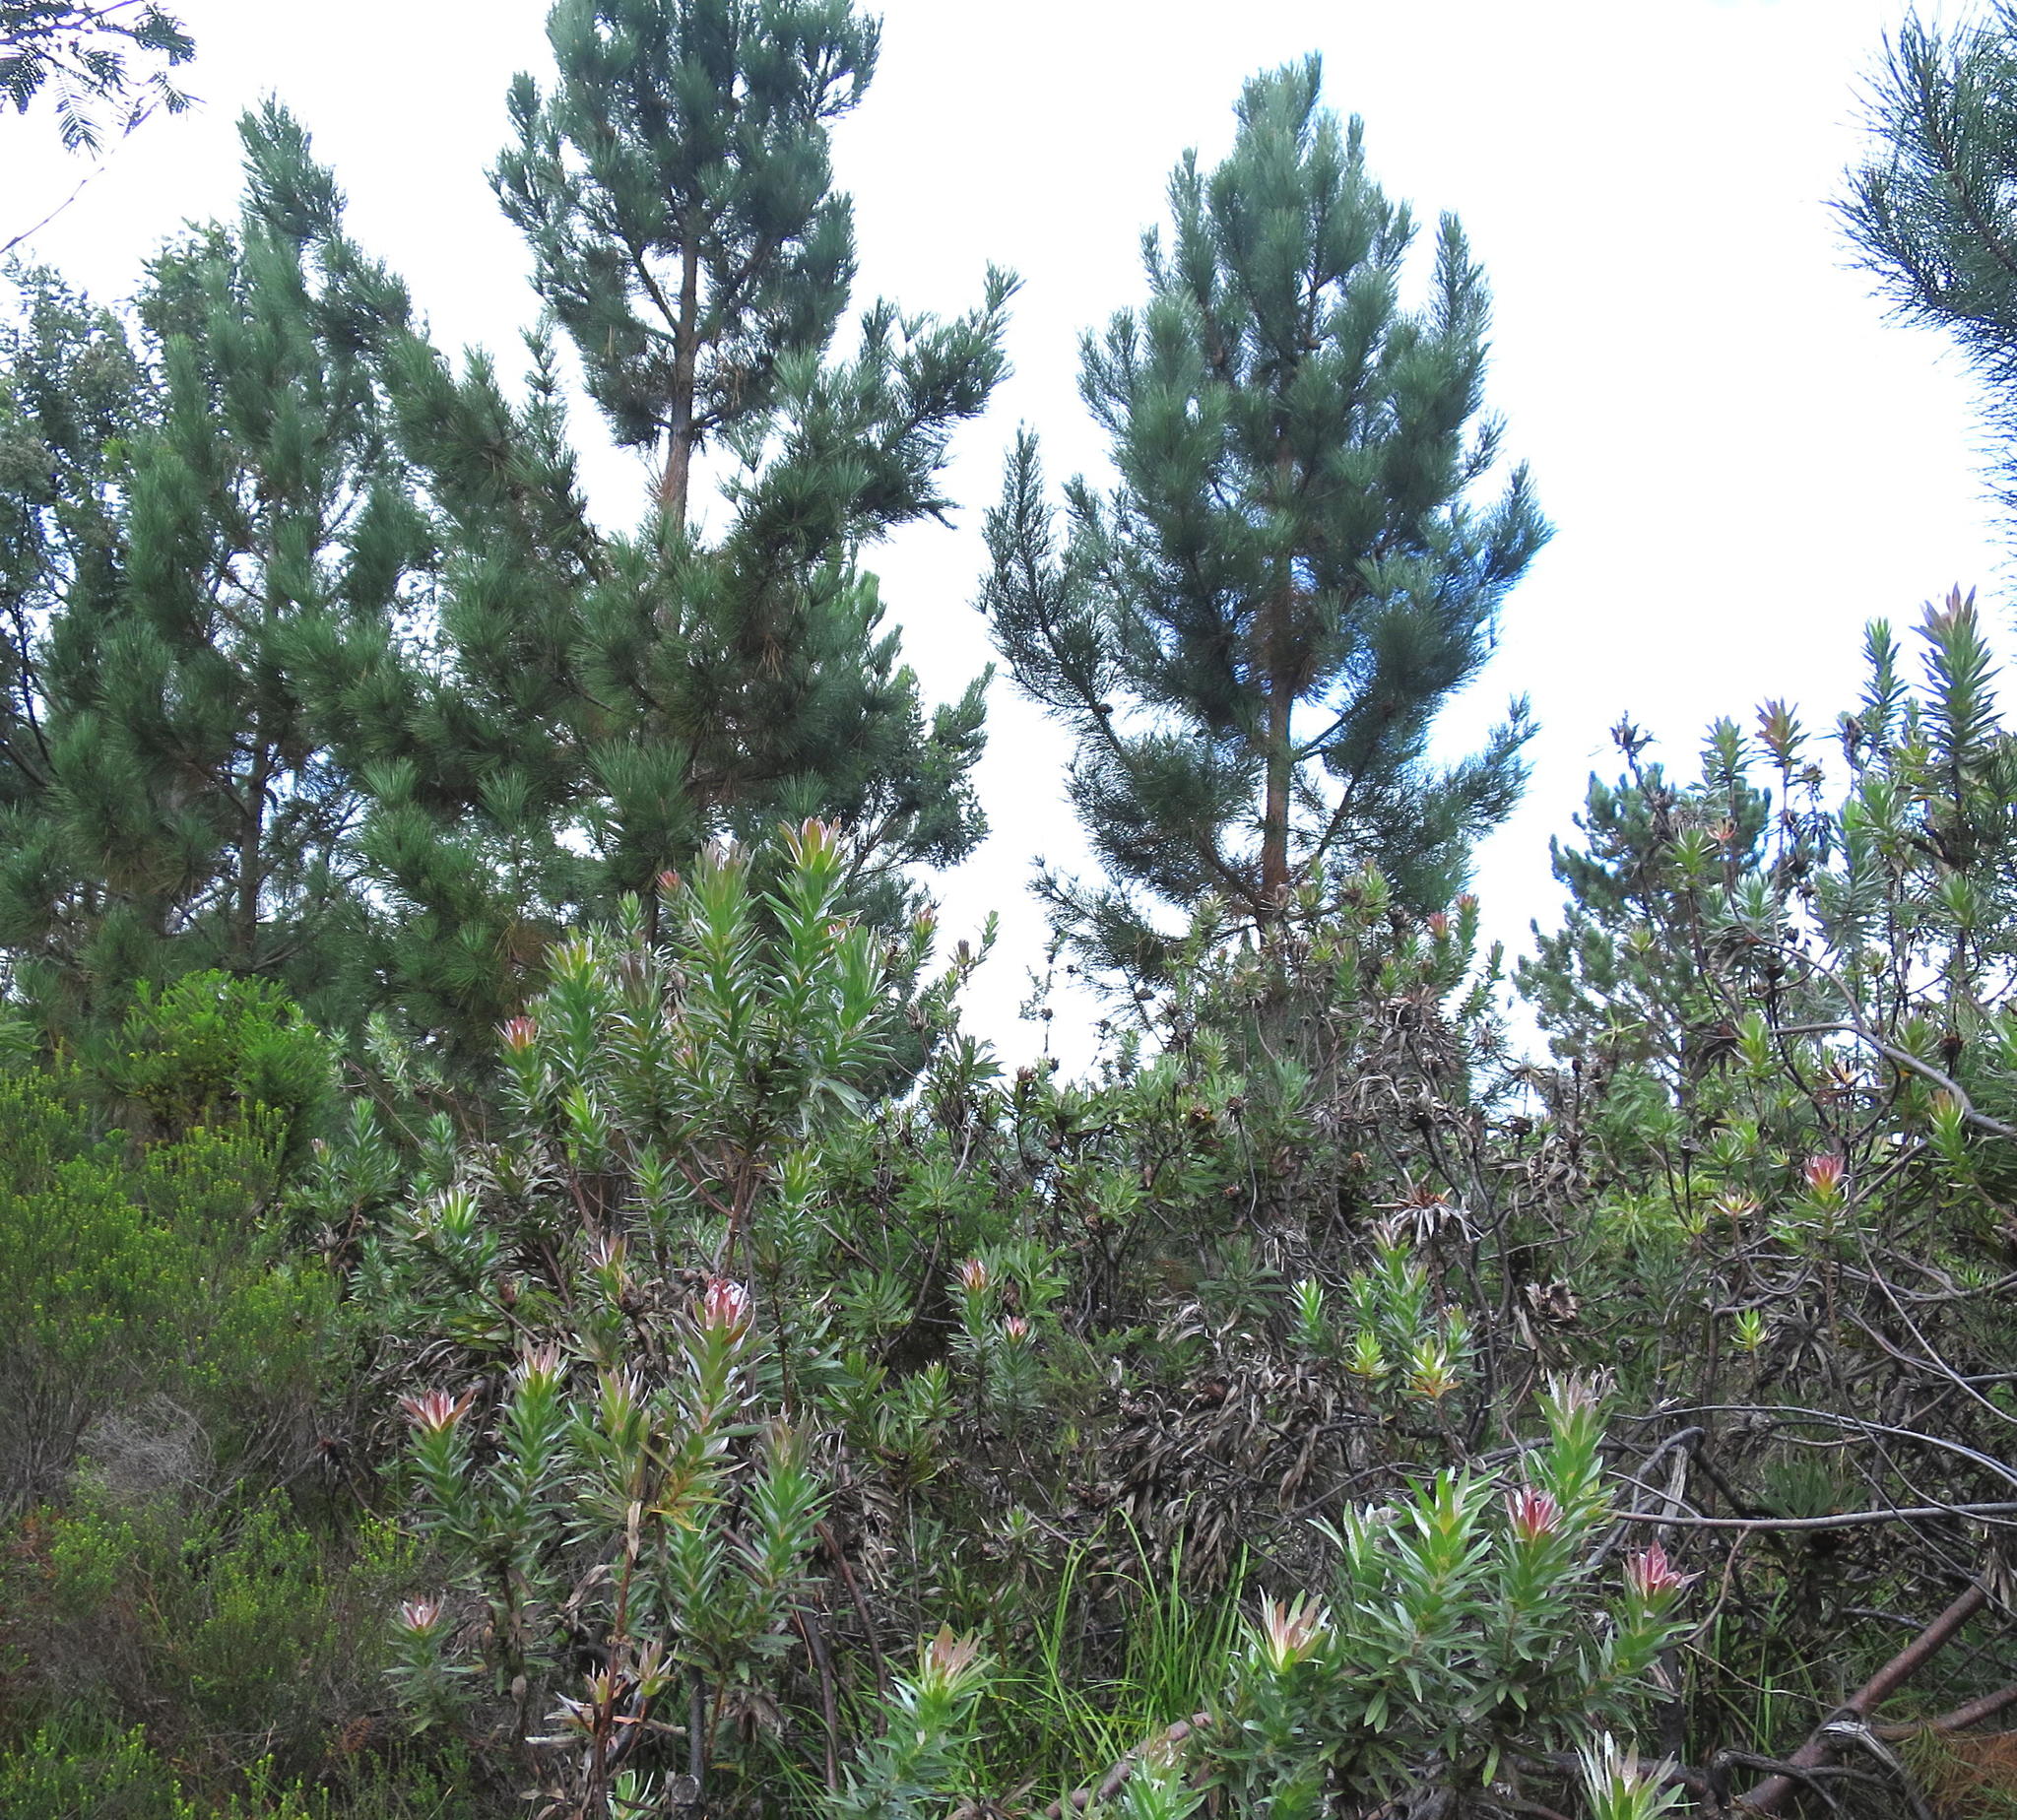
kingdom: Plantae
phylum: Tracheophyta
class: Magnoliopsida
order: Proteales
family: Proteaceae
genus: Protea
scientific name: Protea coronata
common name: Green sugarbush
